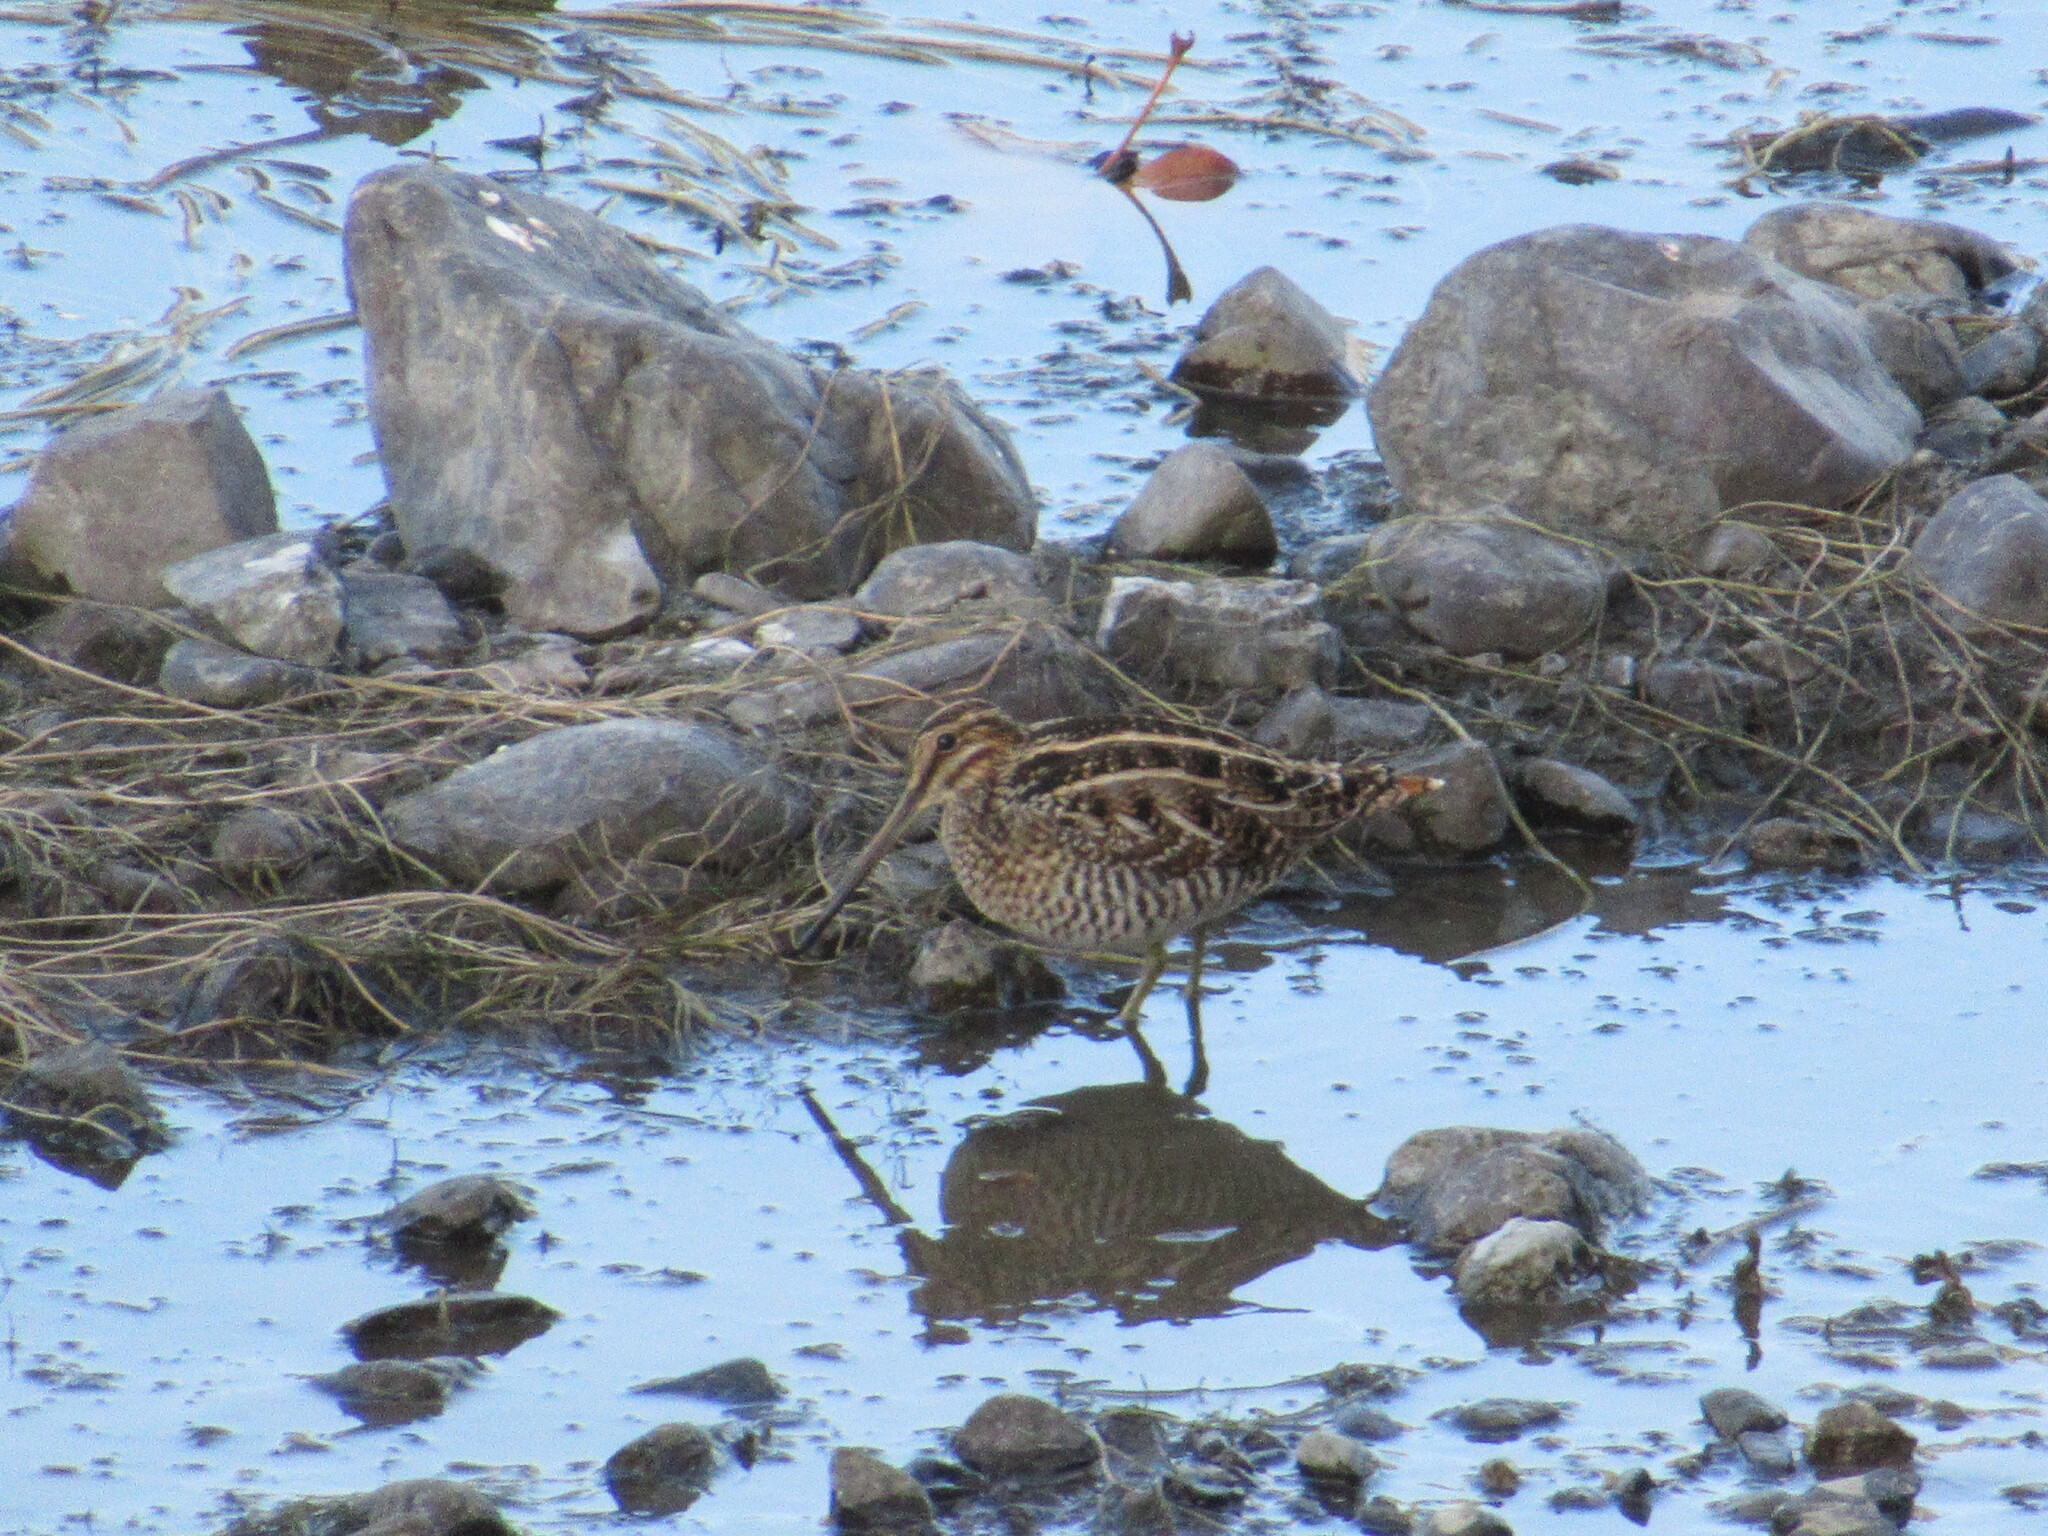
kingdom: Animalia
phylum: Chordata
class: Aves
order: Charadriiformes
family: Scolopacidae
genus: Gallinago
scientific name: Gallinago delicata
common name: Wilson's snipe
